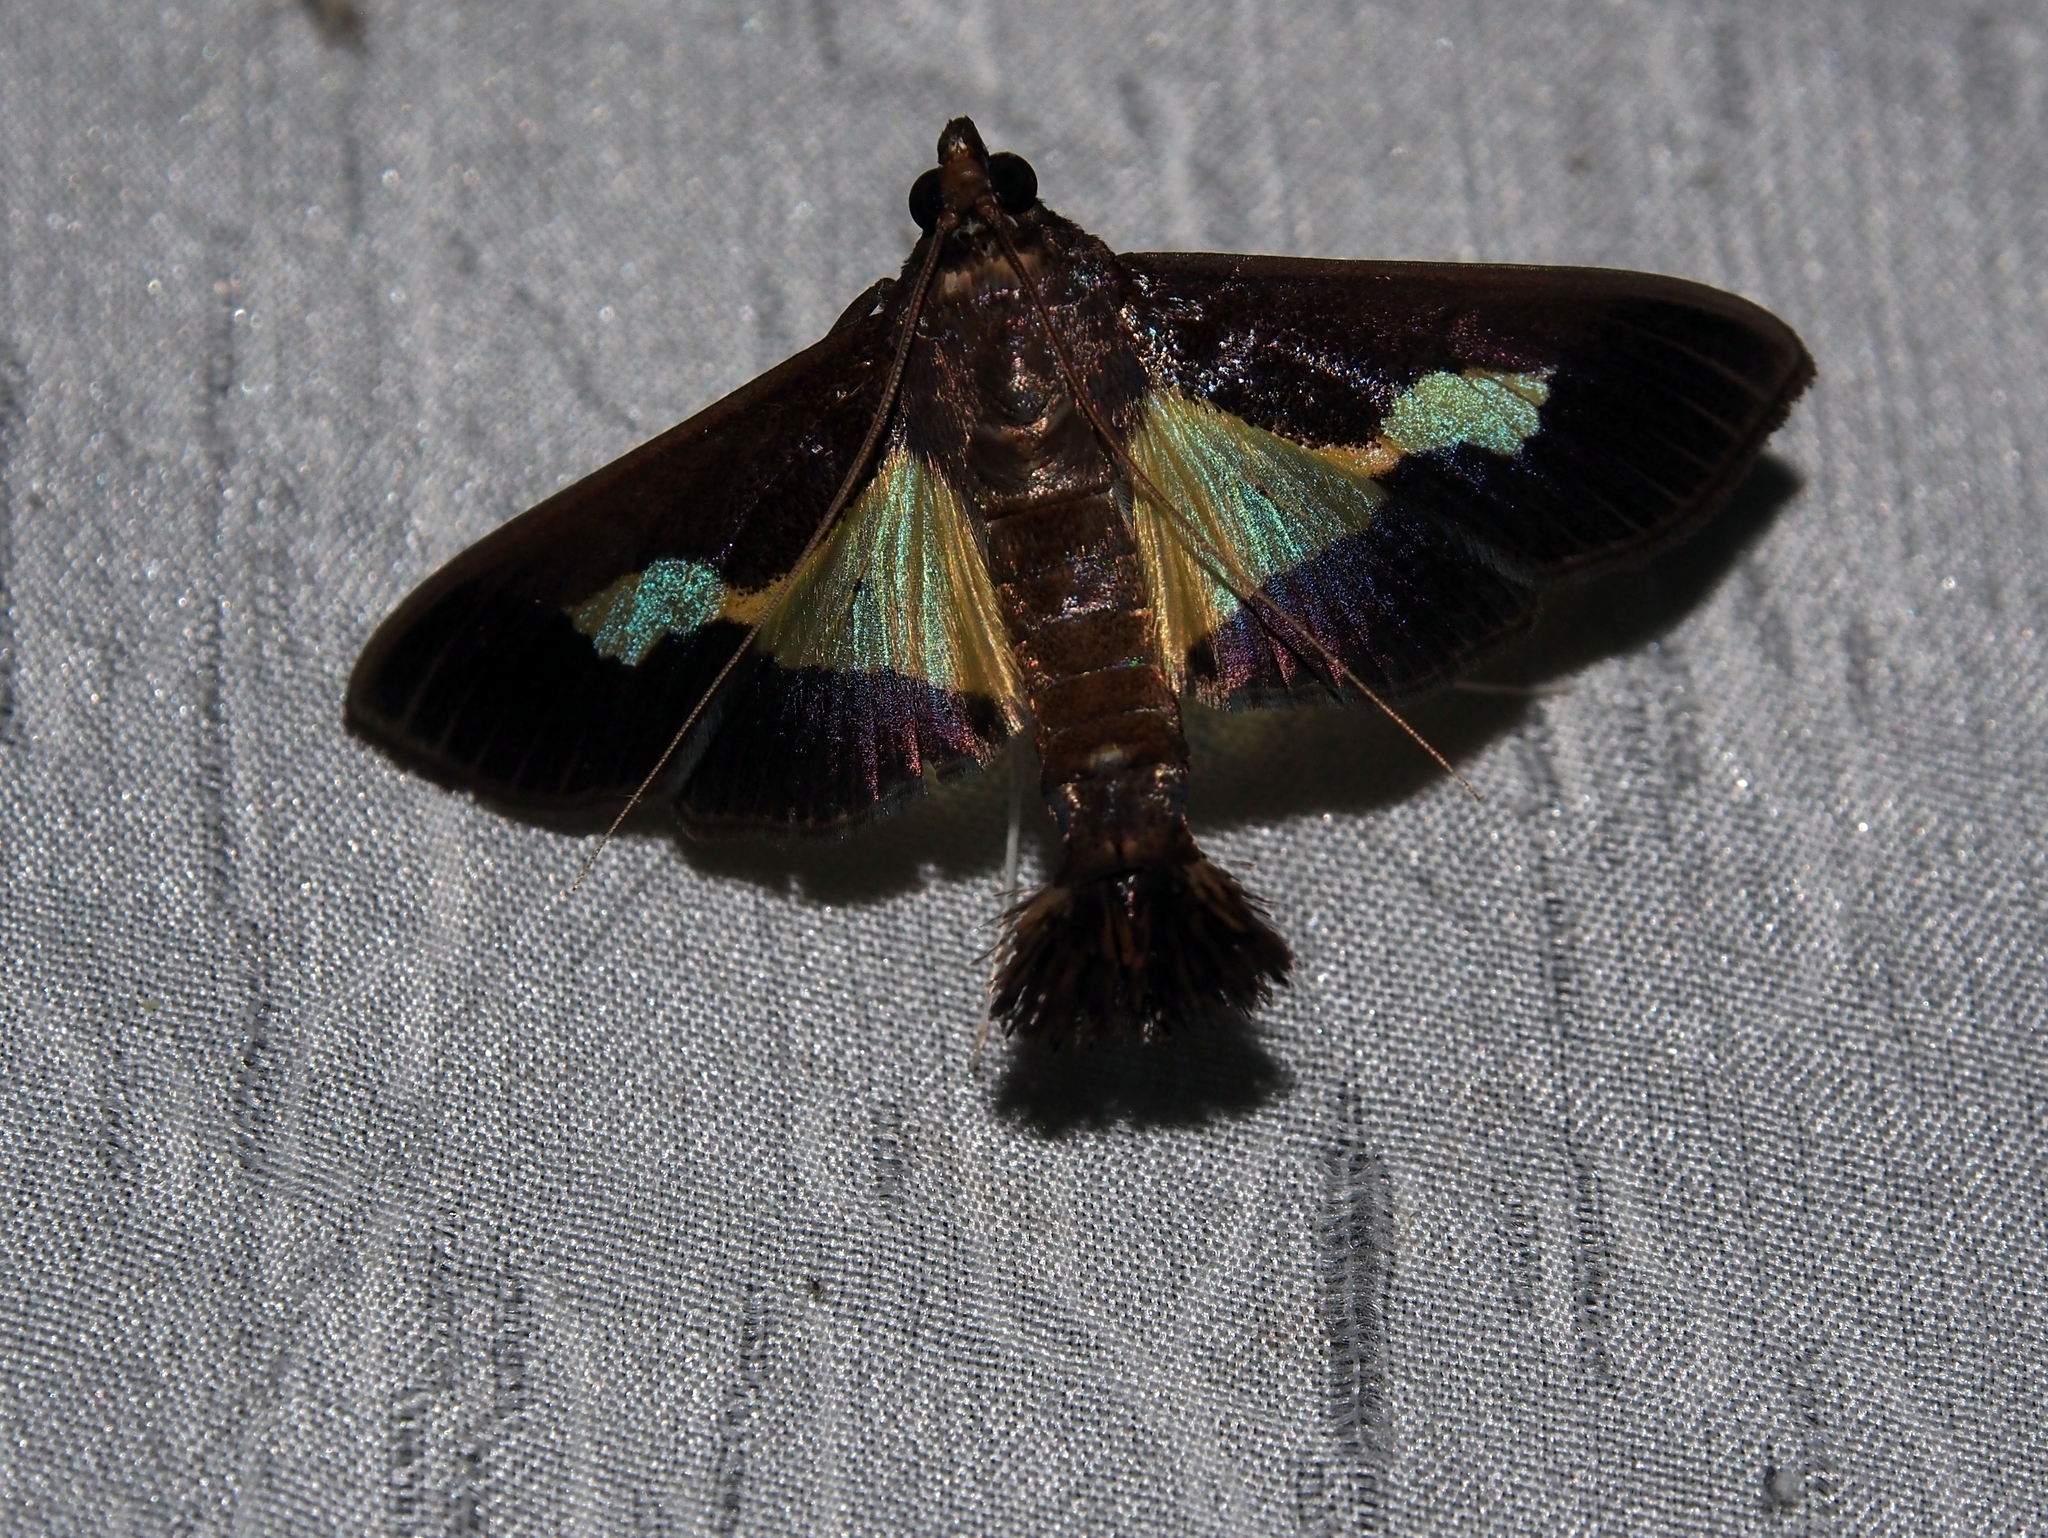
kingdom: Animalia
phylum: Arthropoda
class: Insecta
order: Lepidoptera
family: Crambidae
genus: Cryptographis
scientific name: Cryptographis nitidalis
